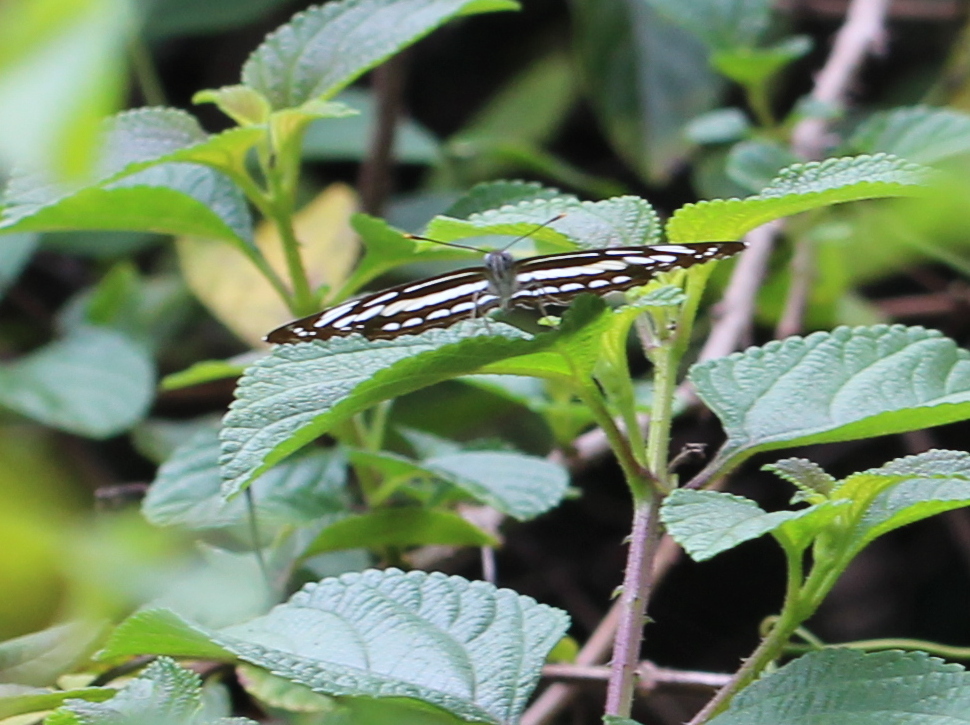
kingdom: Animalia
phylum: Arthropoda
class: Insecta
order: Lepidoptera
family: Nymphalidae
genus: Neptis
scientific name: Neptis hylas
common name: Common sailer
